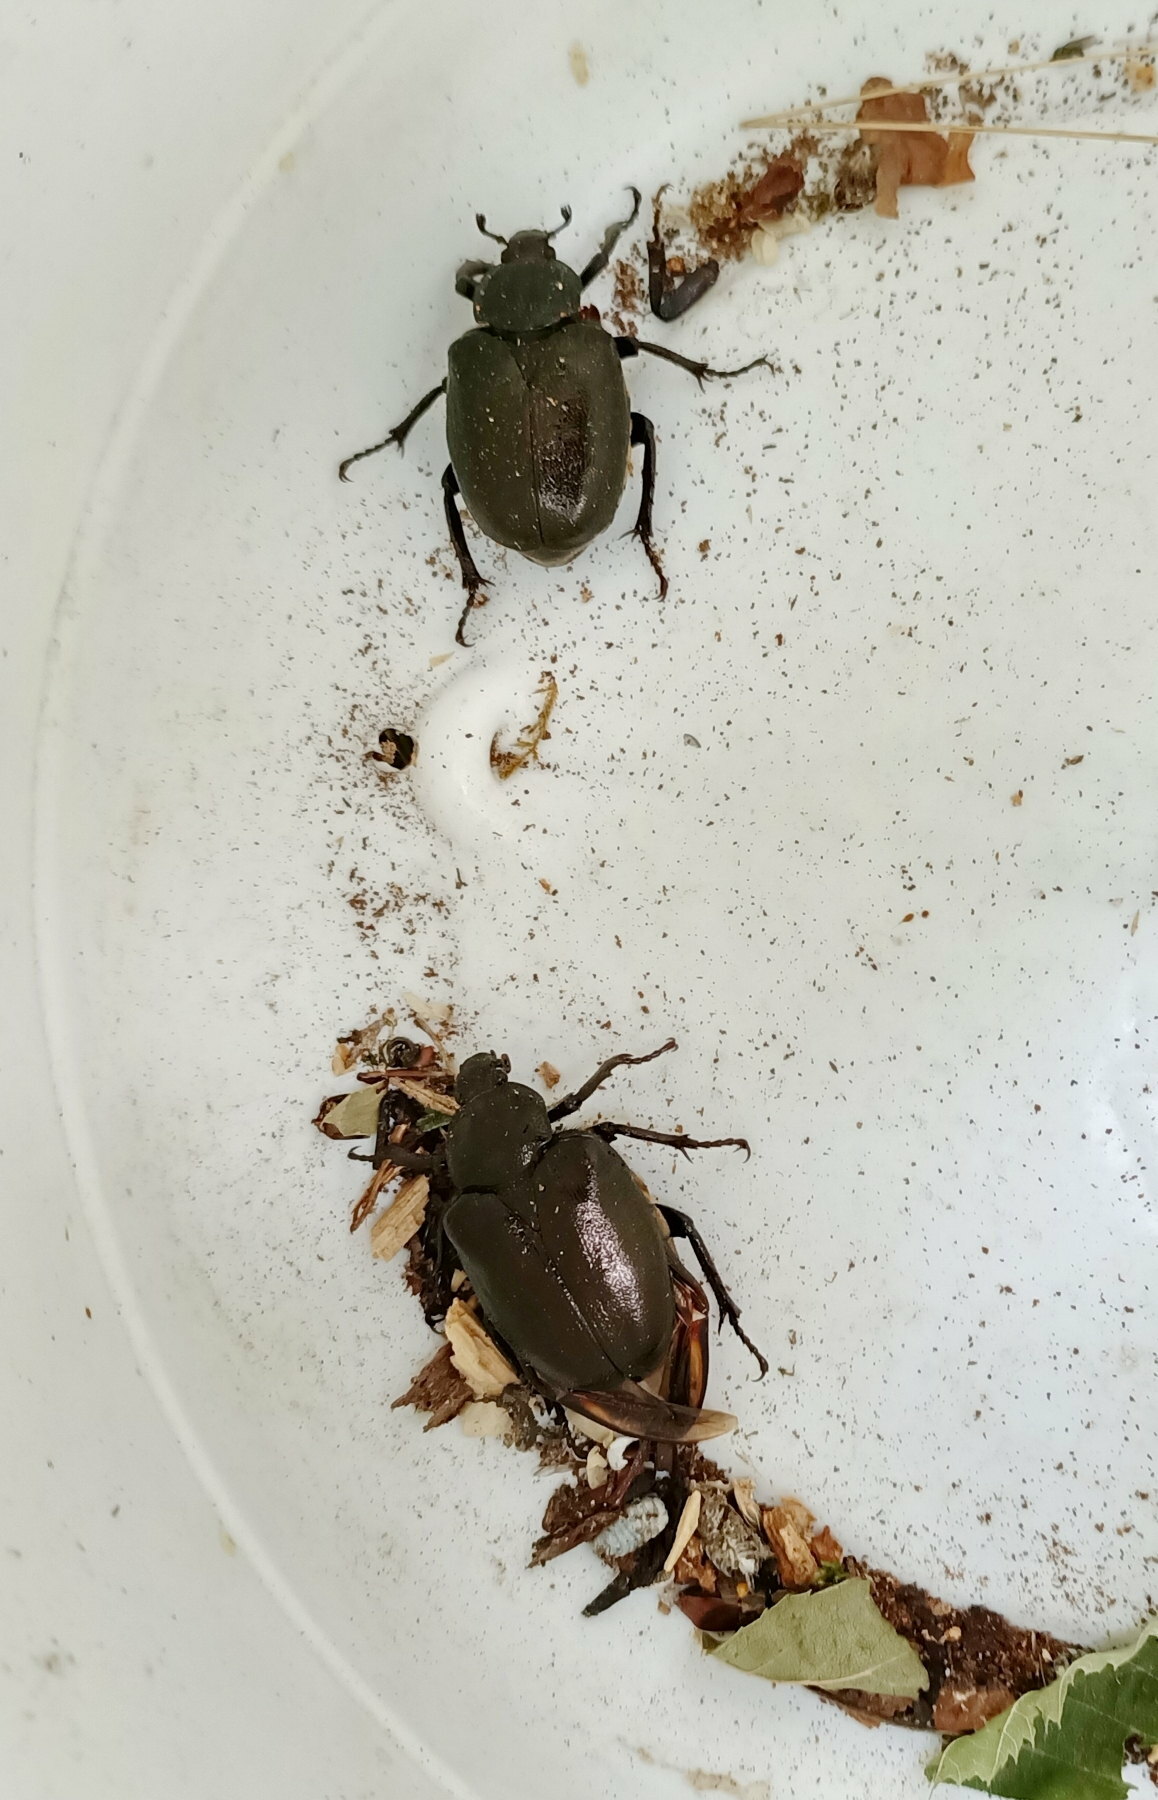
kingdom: Animalia
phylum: Arthropoda
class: Insecta
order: Coleoptera
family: Scarabaeidae
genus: Osmoderma
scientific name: Osmoderma barnabita
